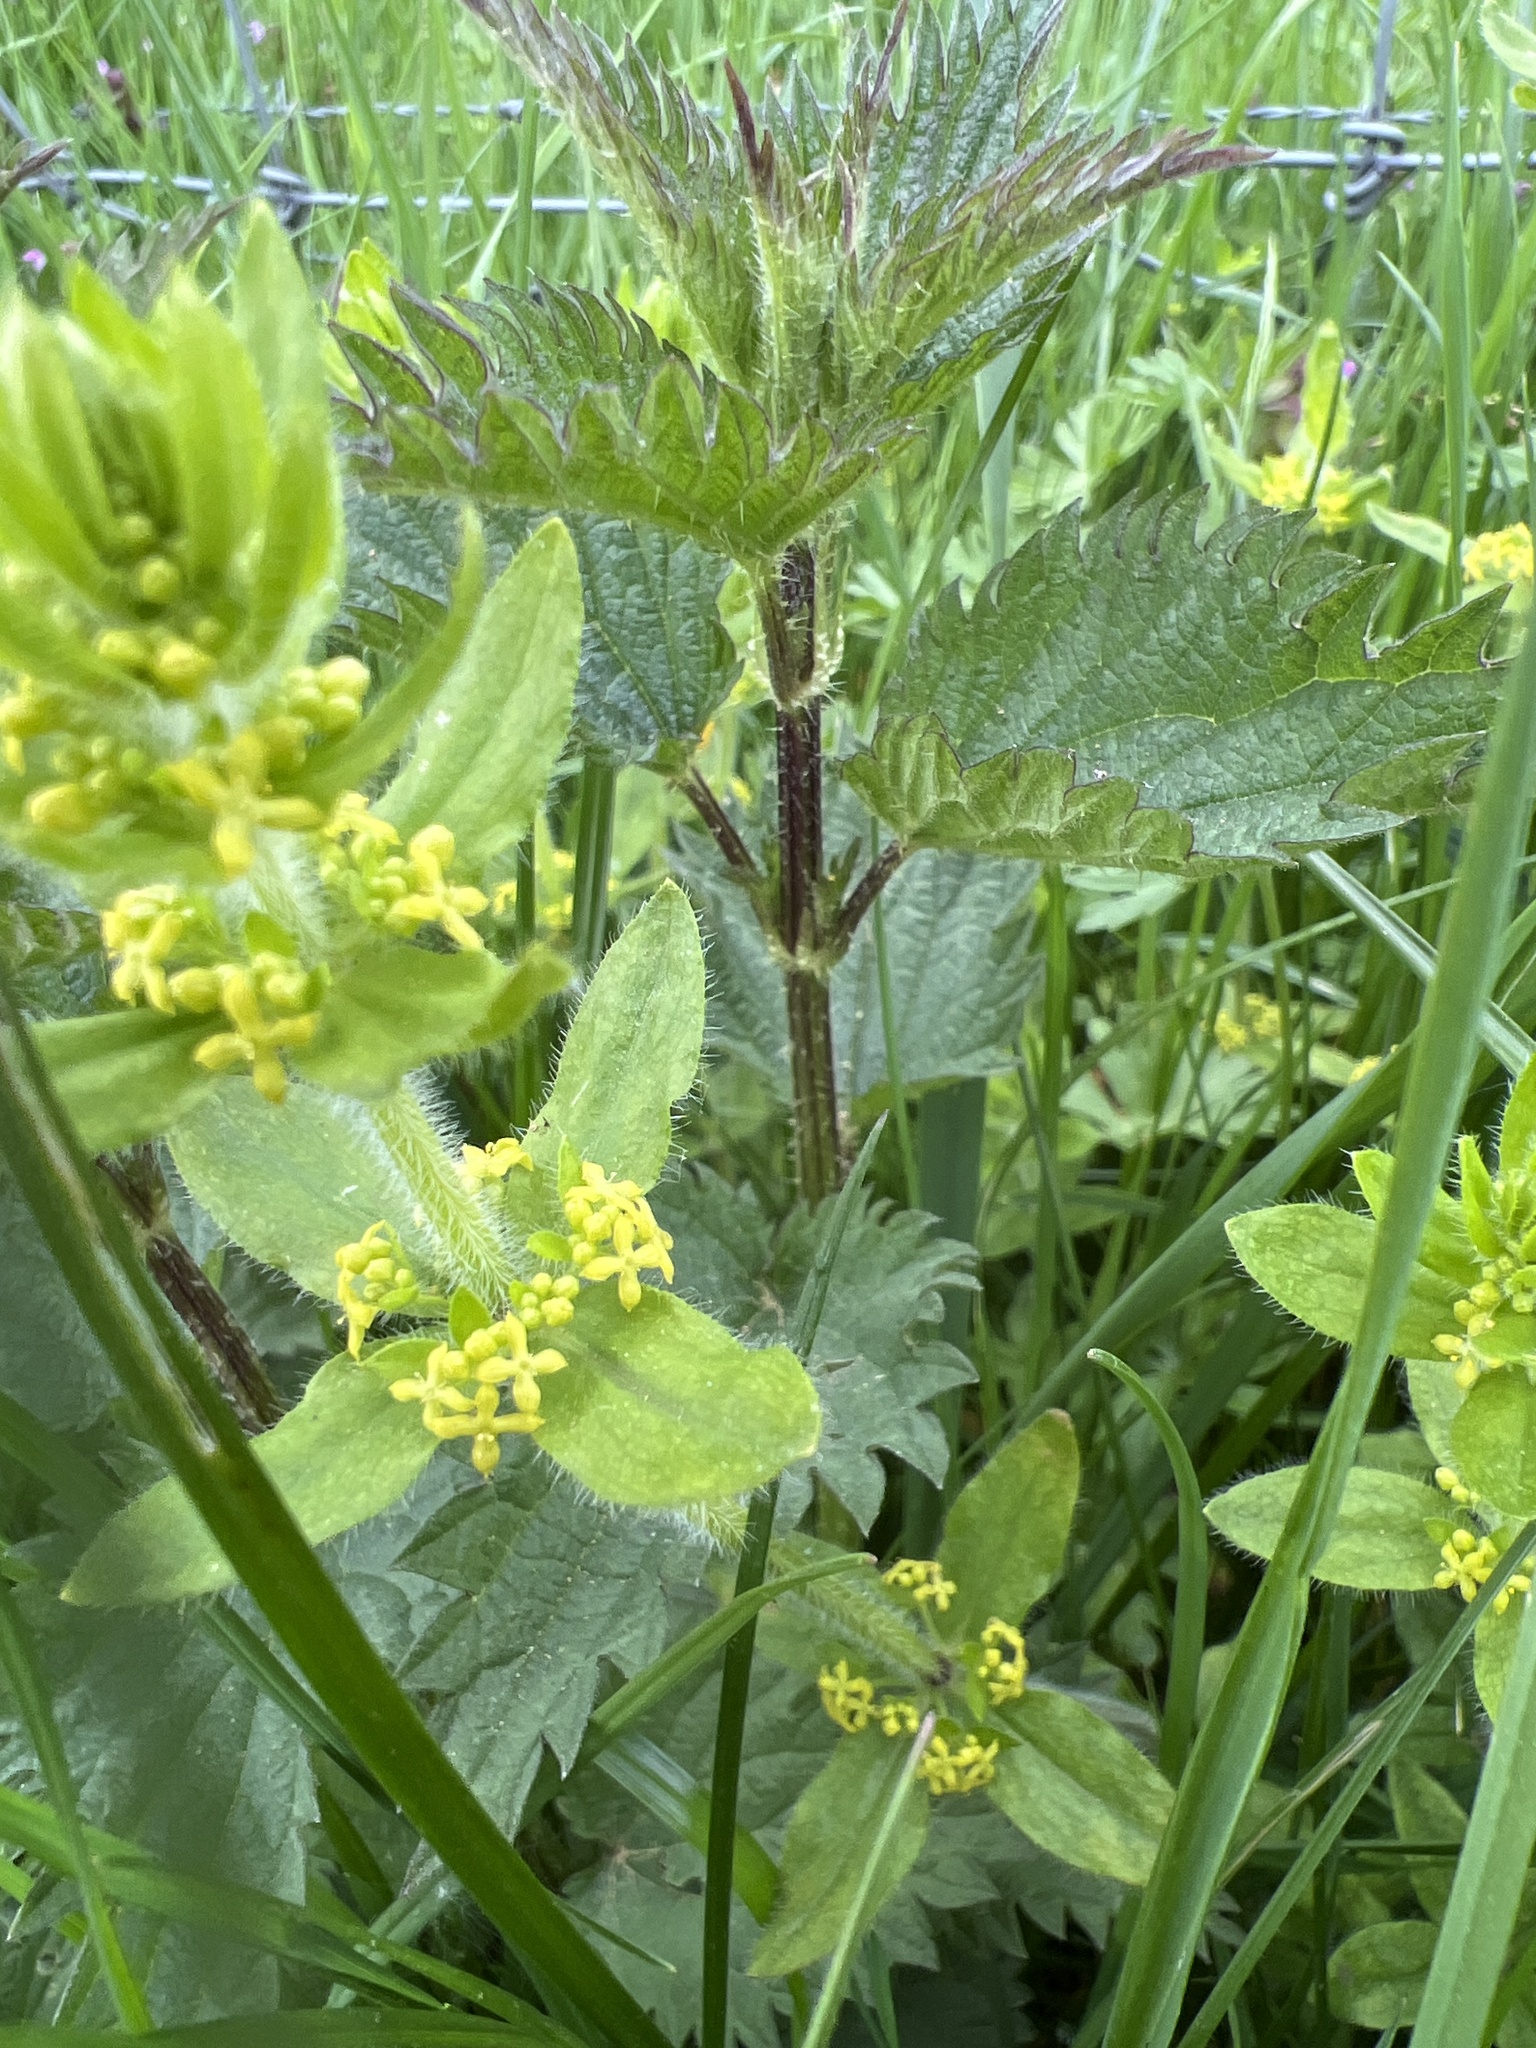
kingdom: Plantae
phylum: Tracheophyta
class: Magnoliopsida
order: Gentianales
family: Rubiaceae
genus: Cruciata
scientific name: Cruciata laevipes
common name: Crosswort
